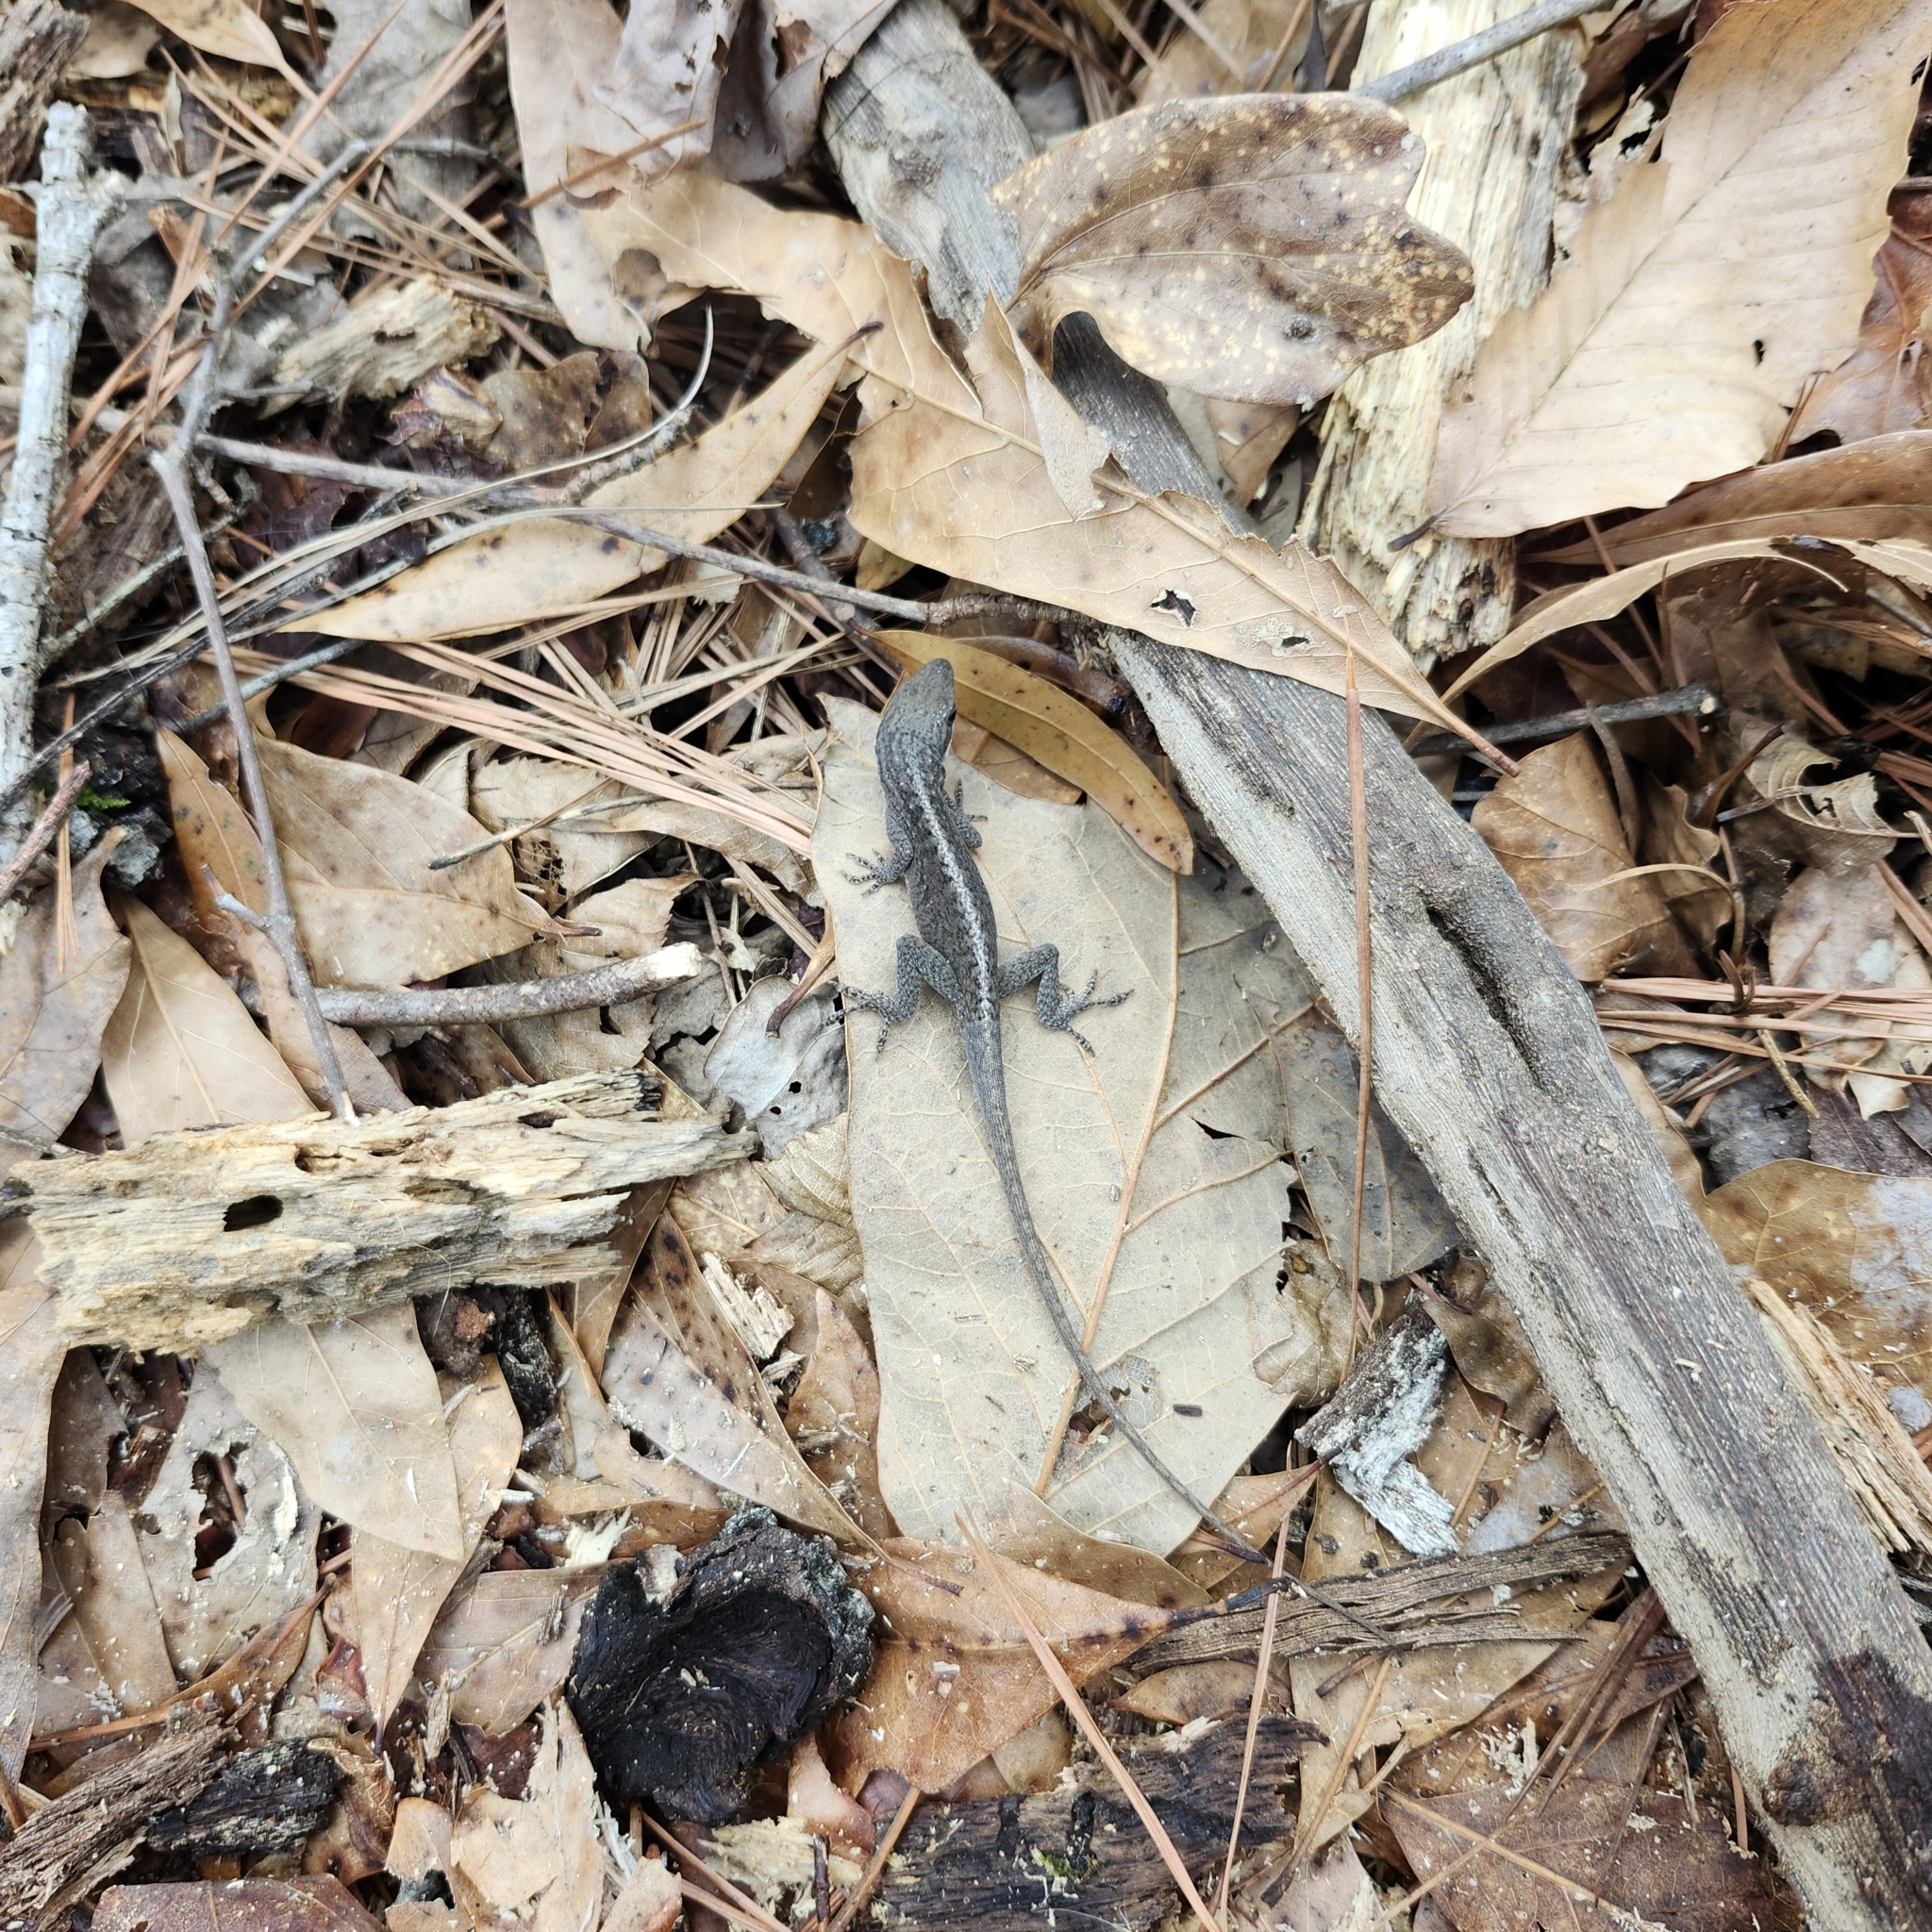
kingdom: Animalia
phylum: Chordata
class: Squamata
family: Dactyloidae
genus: Anolis
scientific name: Anolis carolinensis
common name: Green anole
